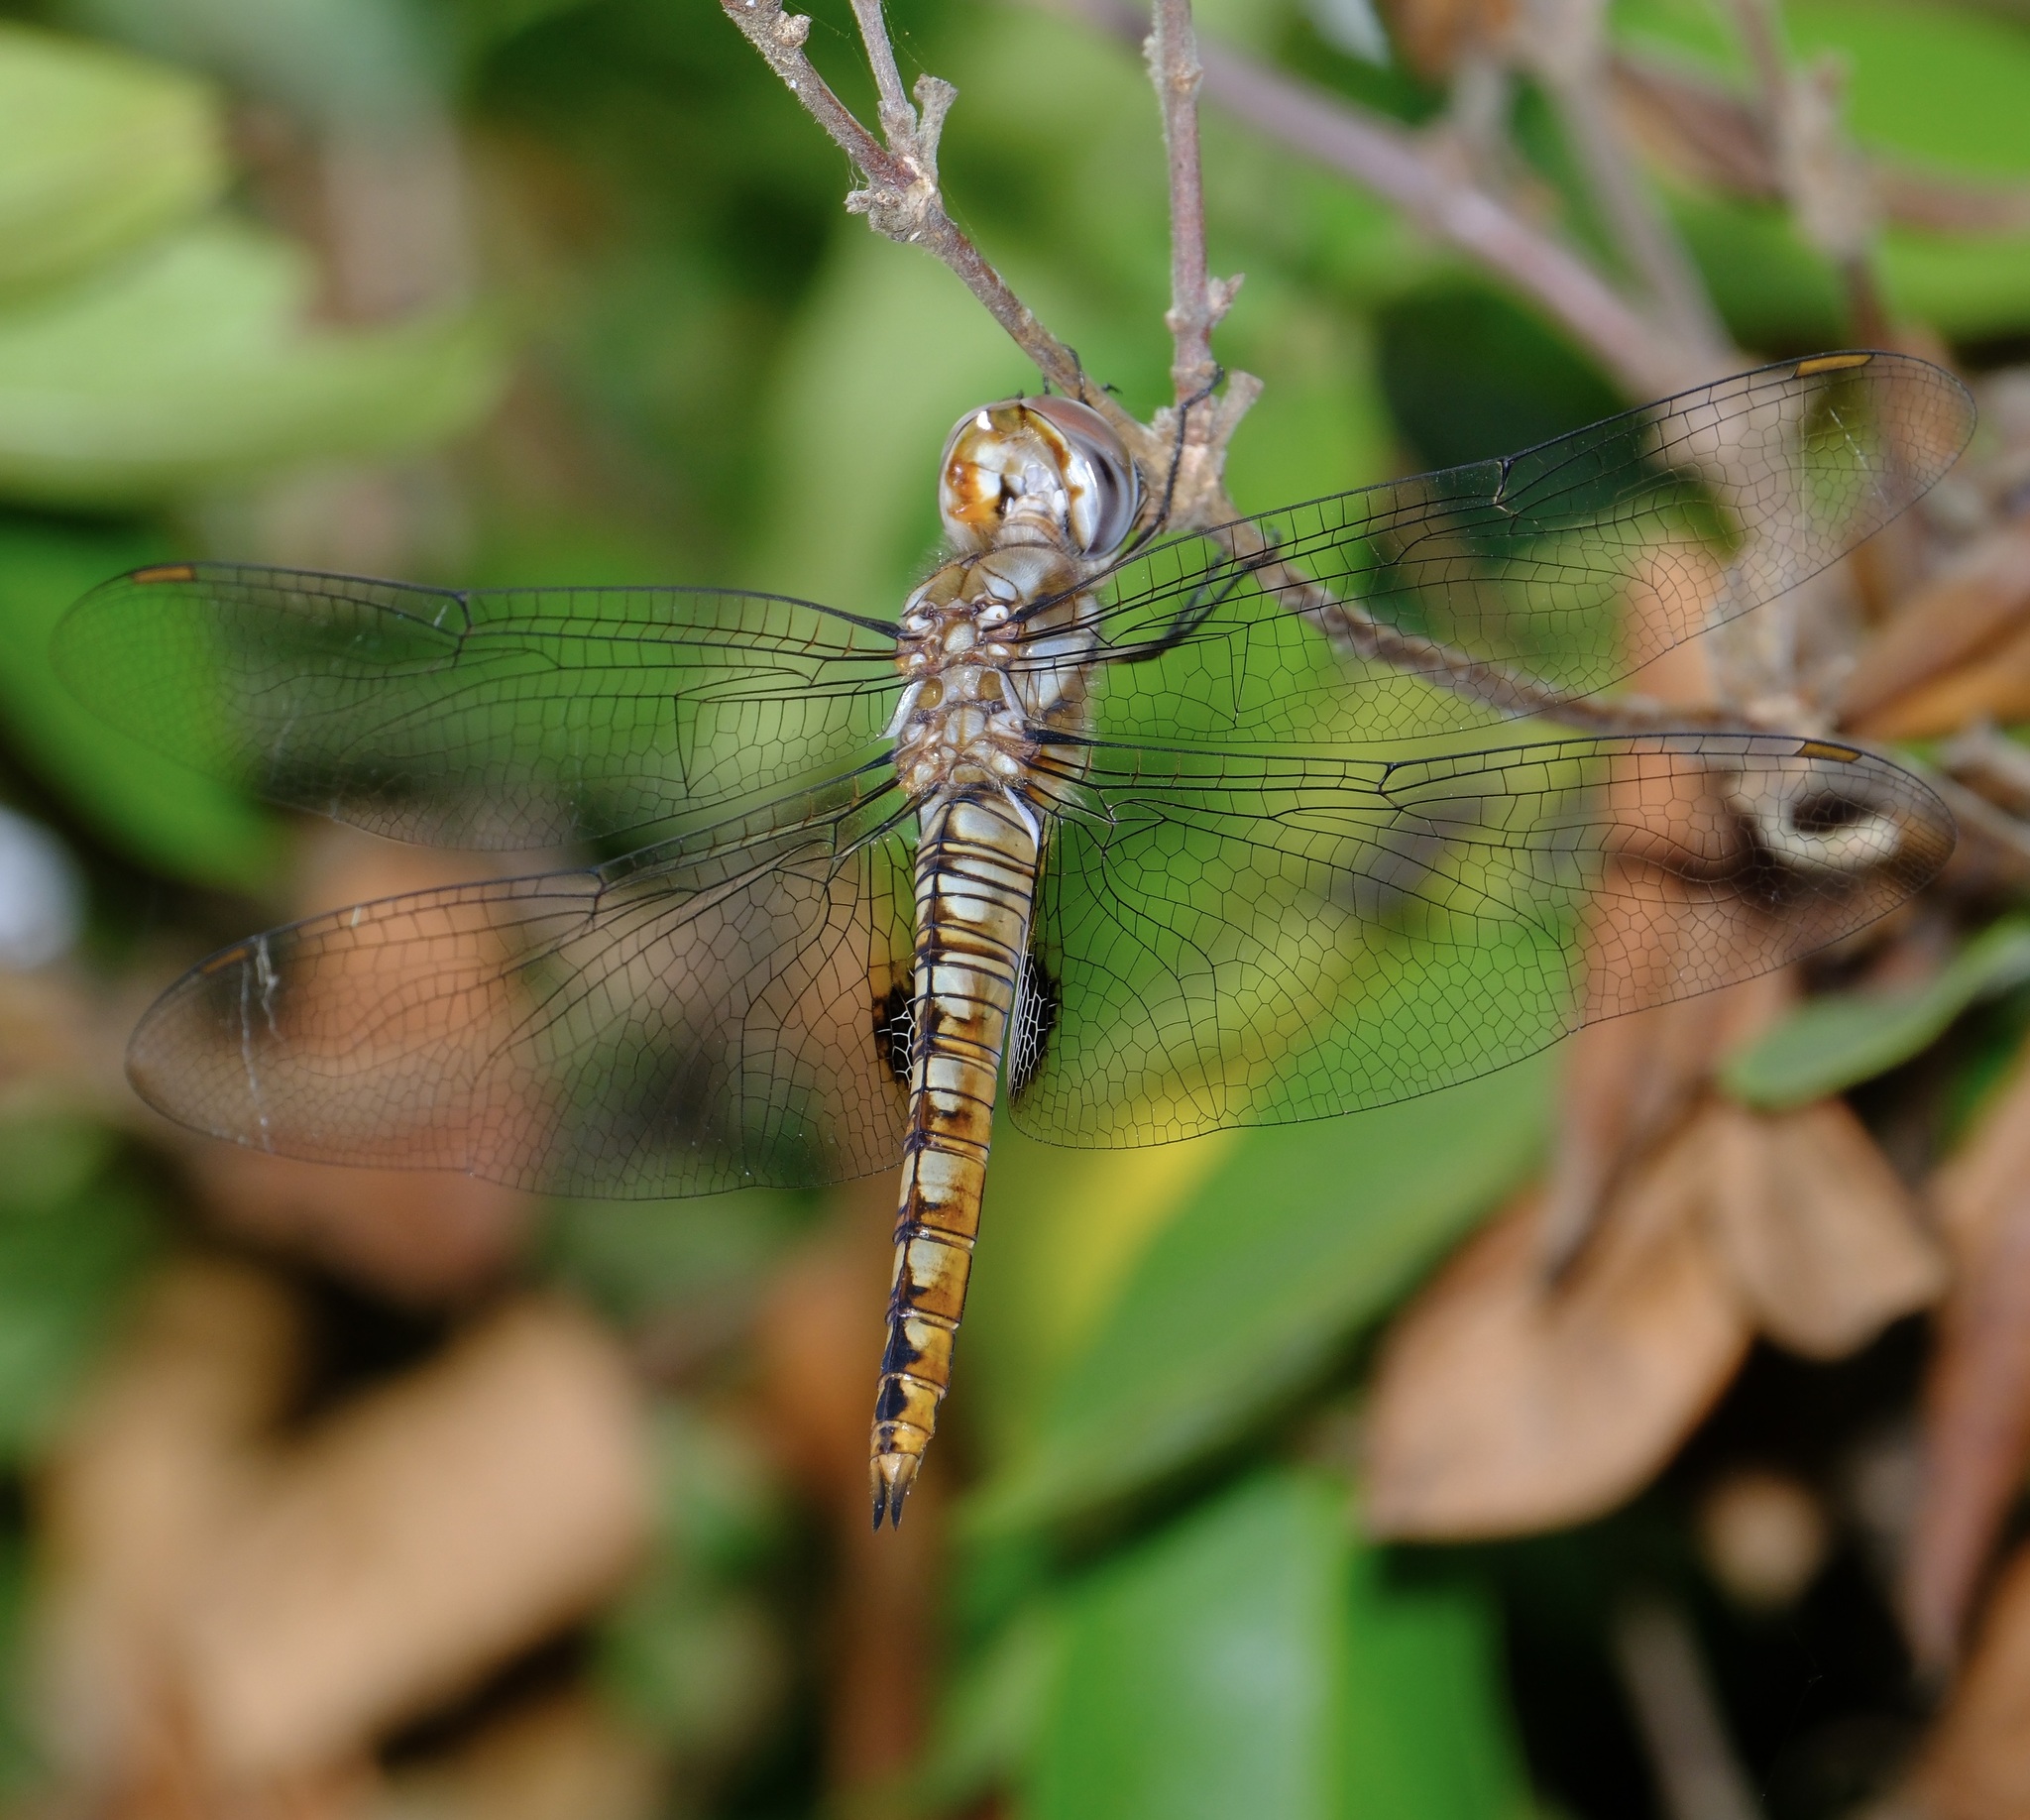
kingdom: Animalia
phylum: Arthropoda
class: Insecta
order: Odonata
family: Libellulidae
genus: Pantala
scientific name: Pantala hymenaea
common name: Spot-winged glider
